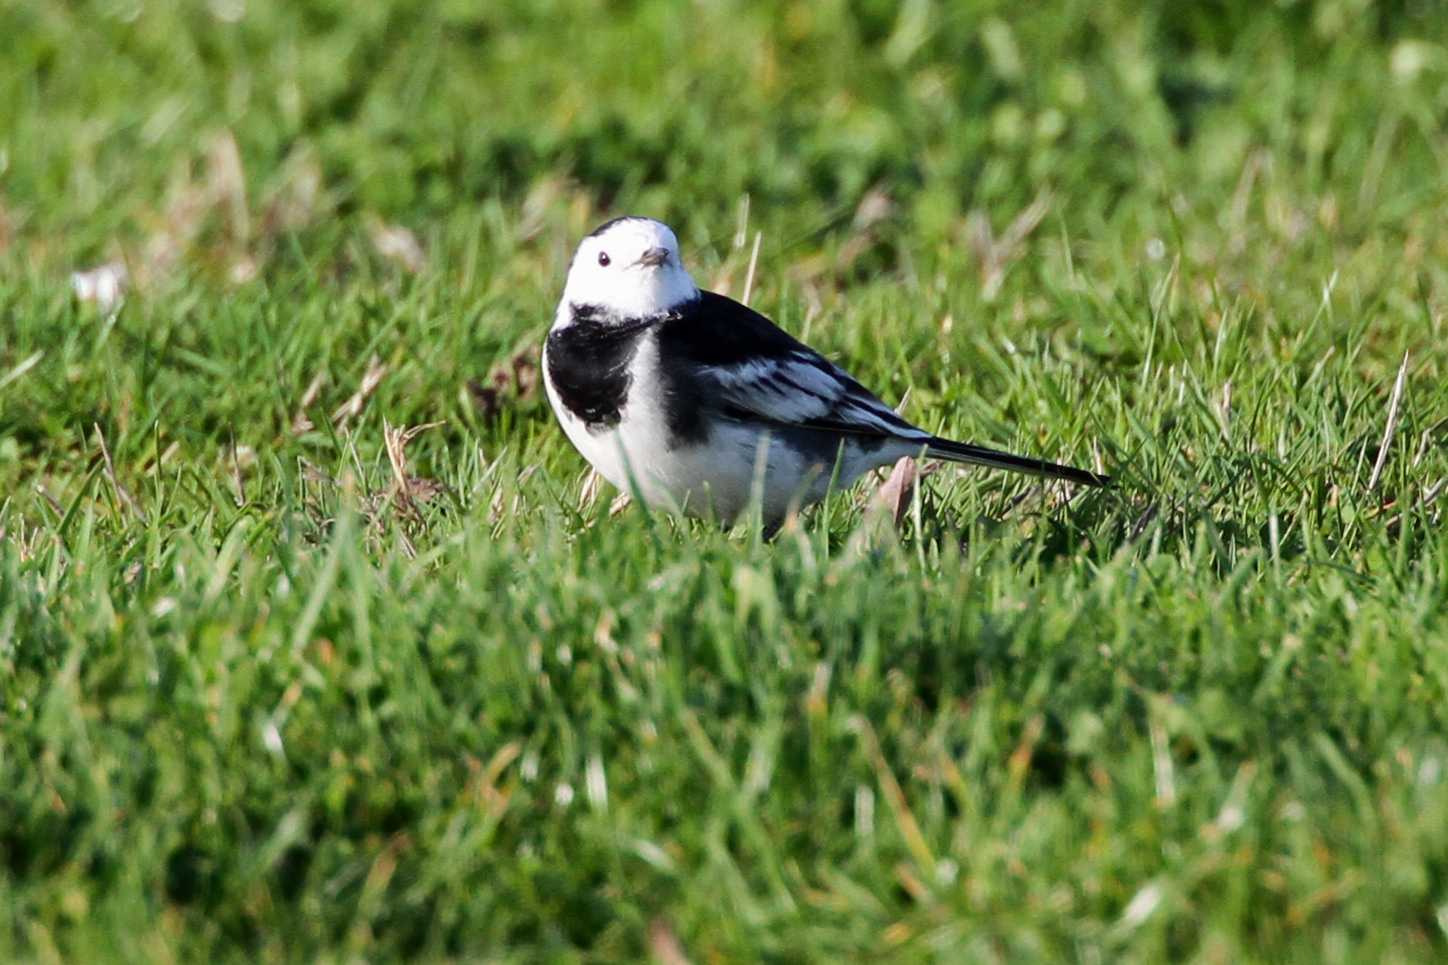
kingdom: Animalia
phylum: Chordata
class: Aves
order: Passeriformes
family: Motacillidae
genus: Motacilla
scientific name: Motacilla alba
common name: White wagtail
